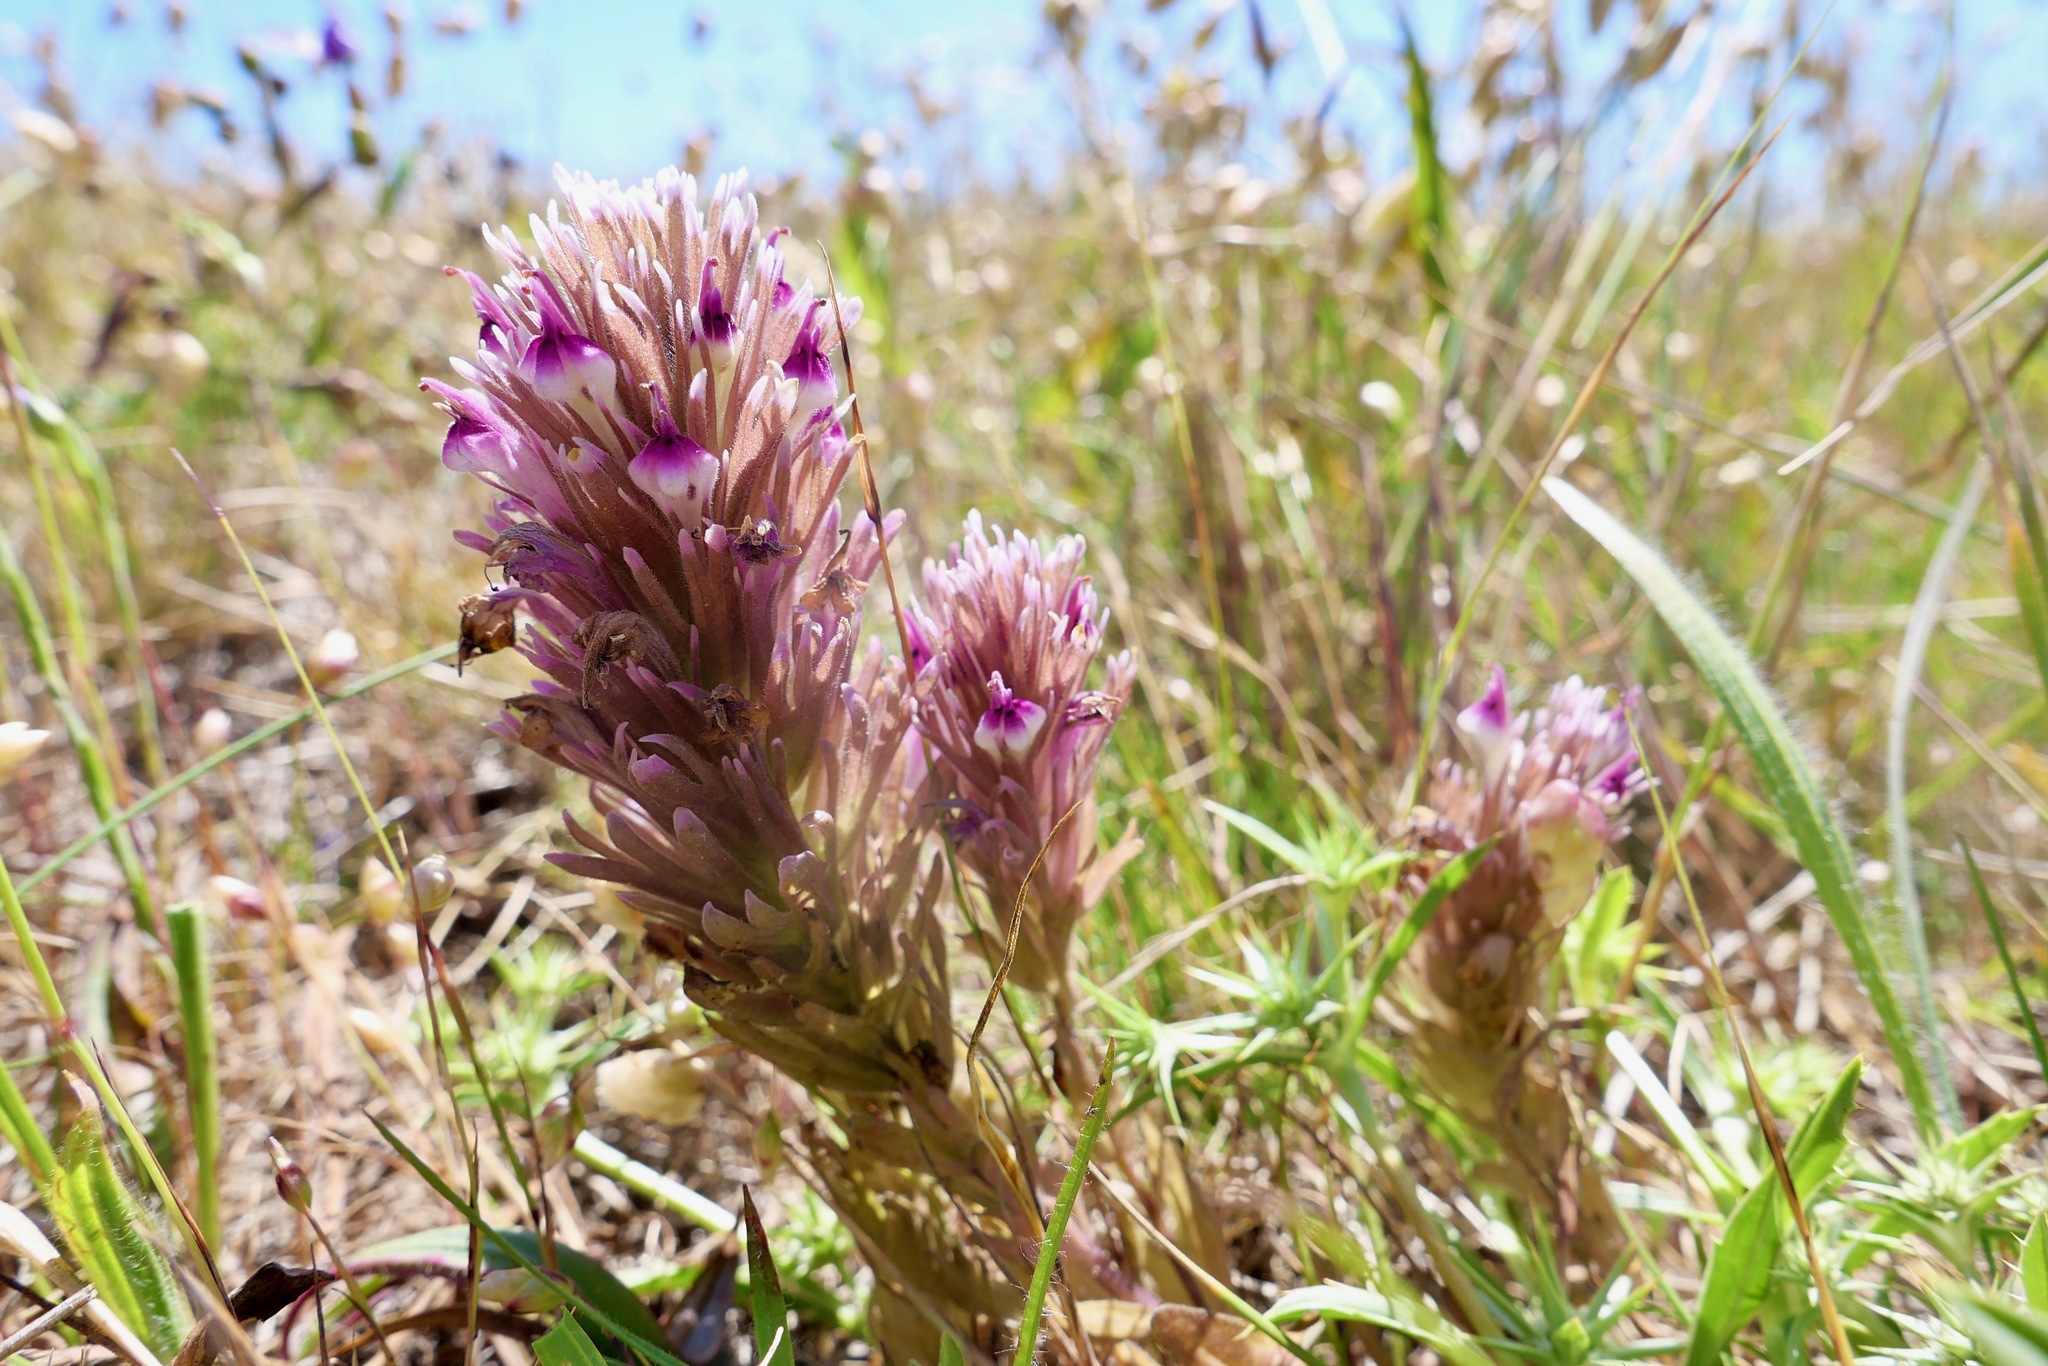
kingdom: Plantae
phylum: Tracheophyta
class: Magnoliopsida
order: Lamiales
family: Orobanchaceae
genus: Castilleja
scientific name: Castilleja ambigua
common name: Johnny-nip
